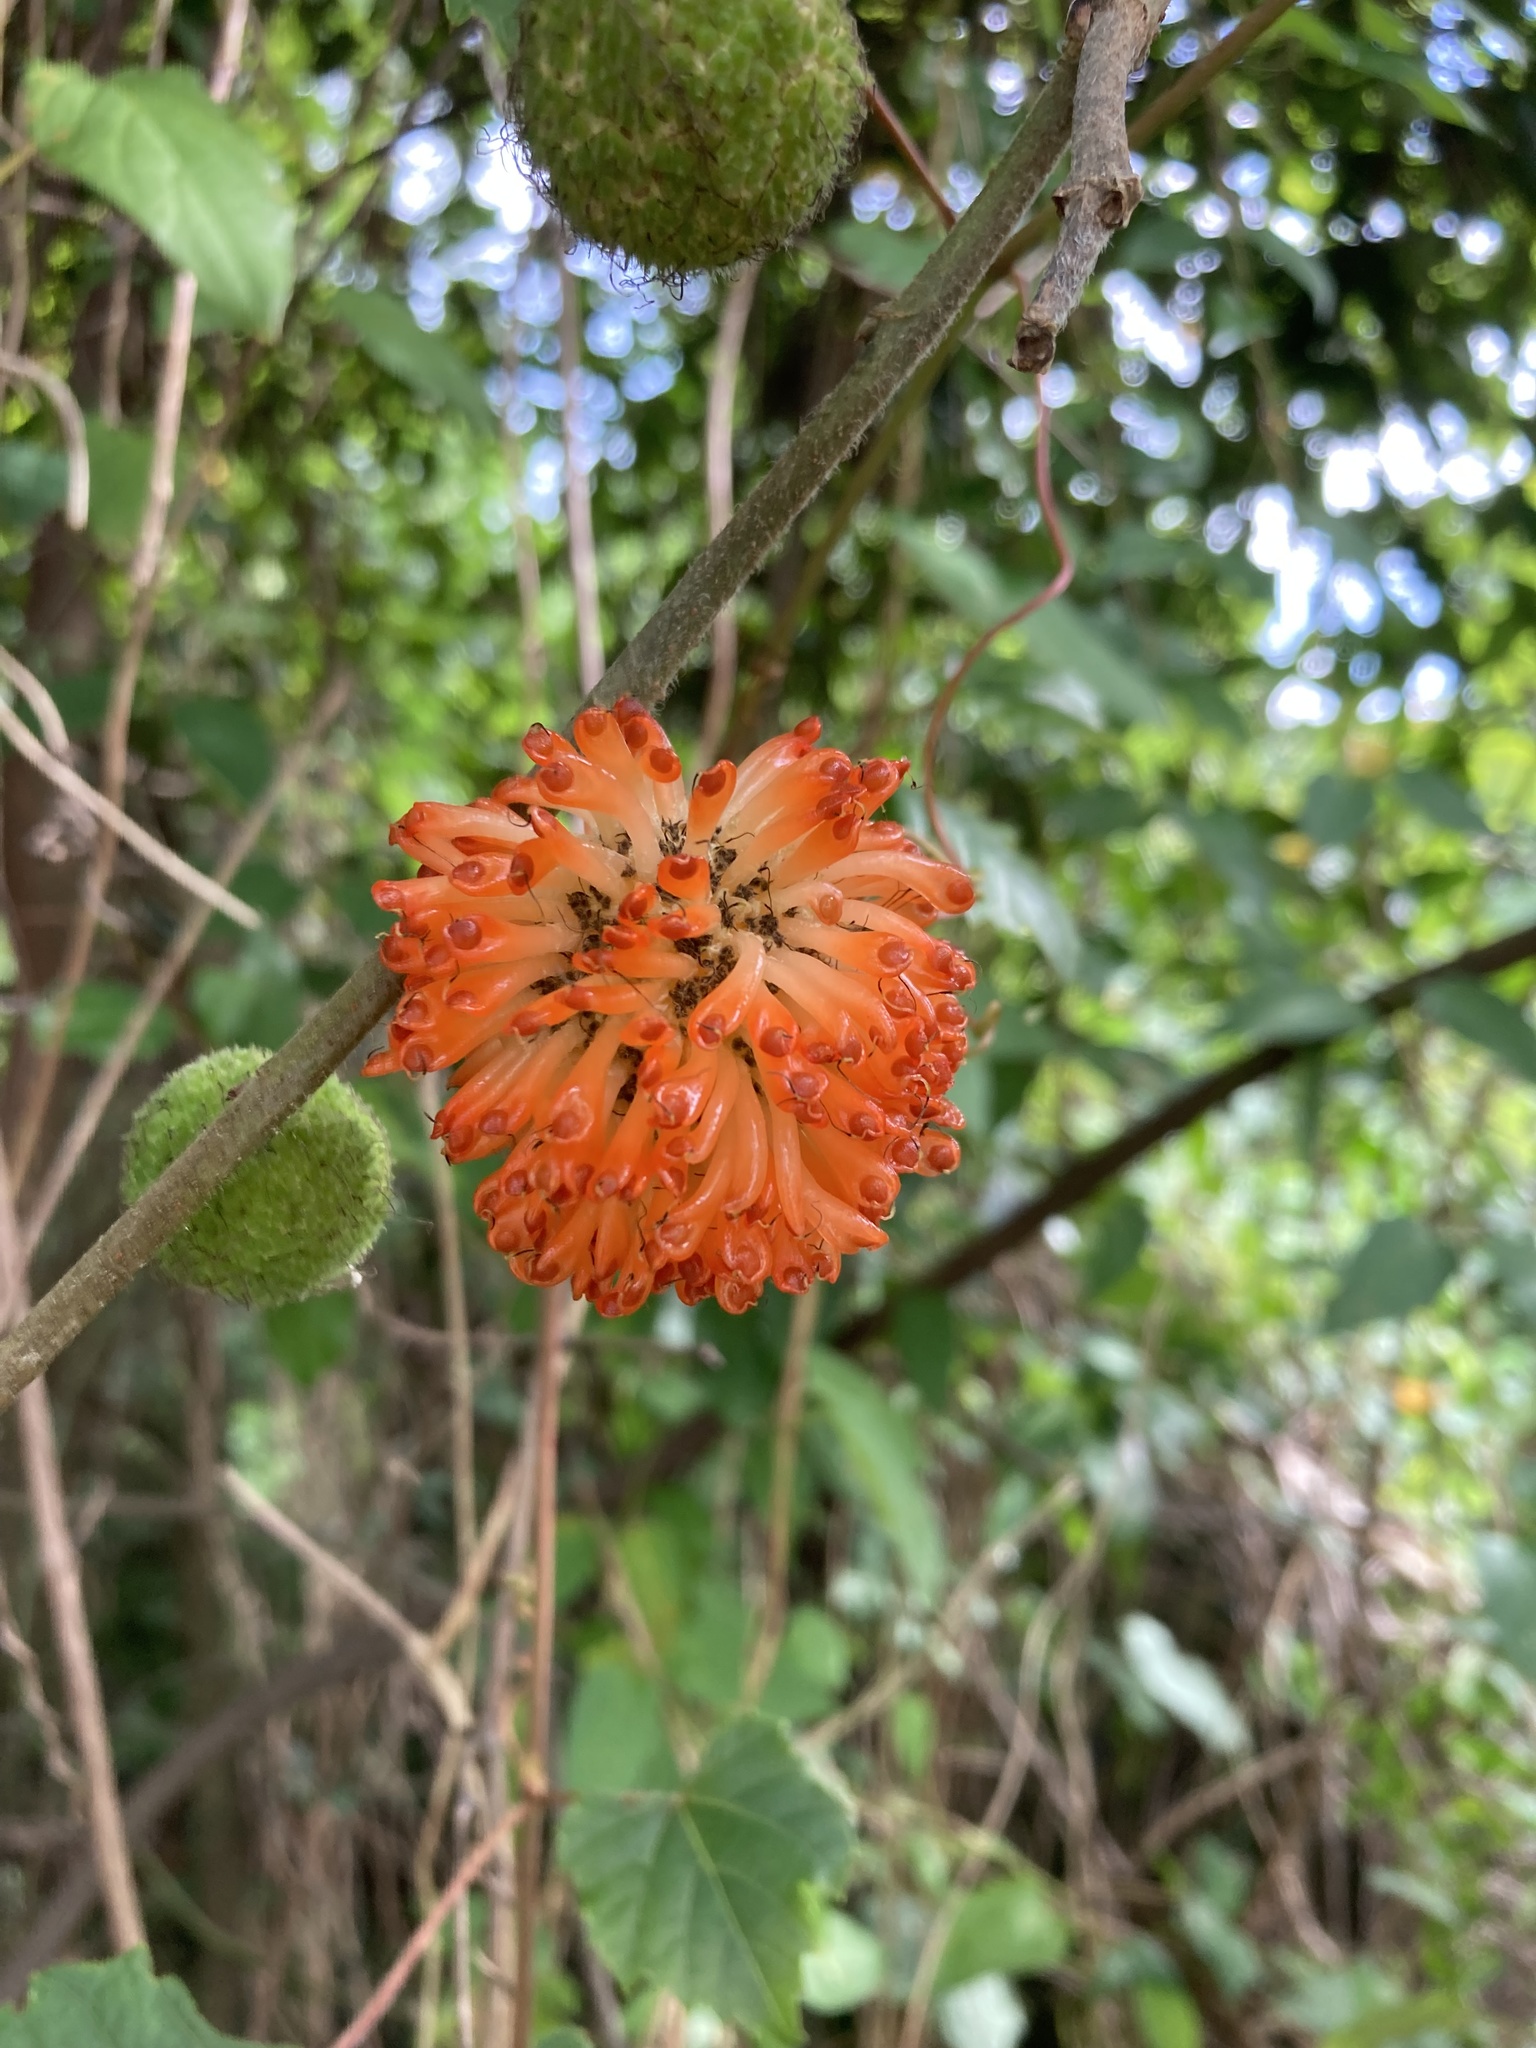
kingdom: Plantae
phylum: Tracheophyta
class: Magnoliopsida
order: Rosales
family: Moraceae
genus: Broussonetia
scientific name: Broussonetia papyrifera
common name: Paper mulberry
